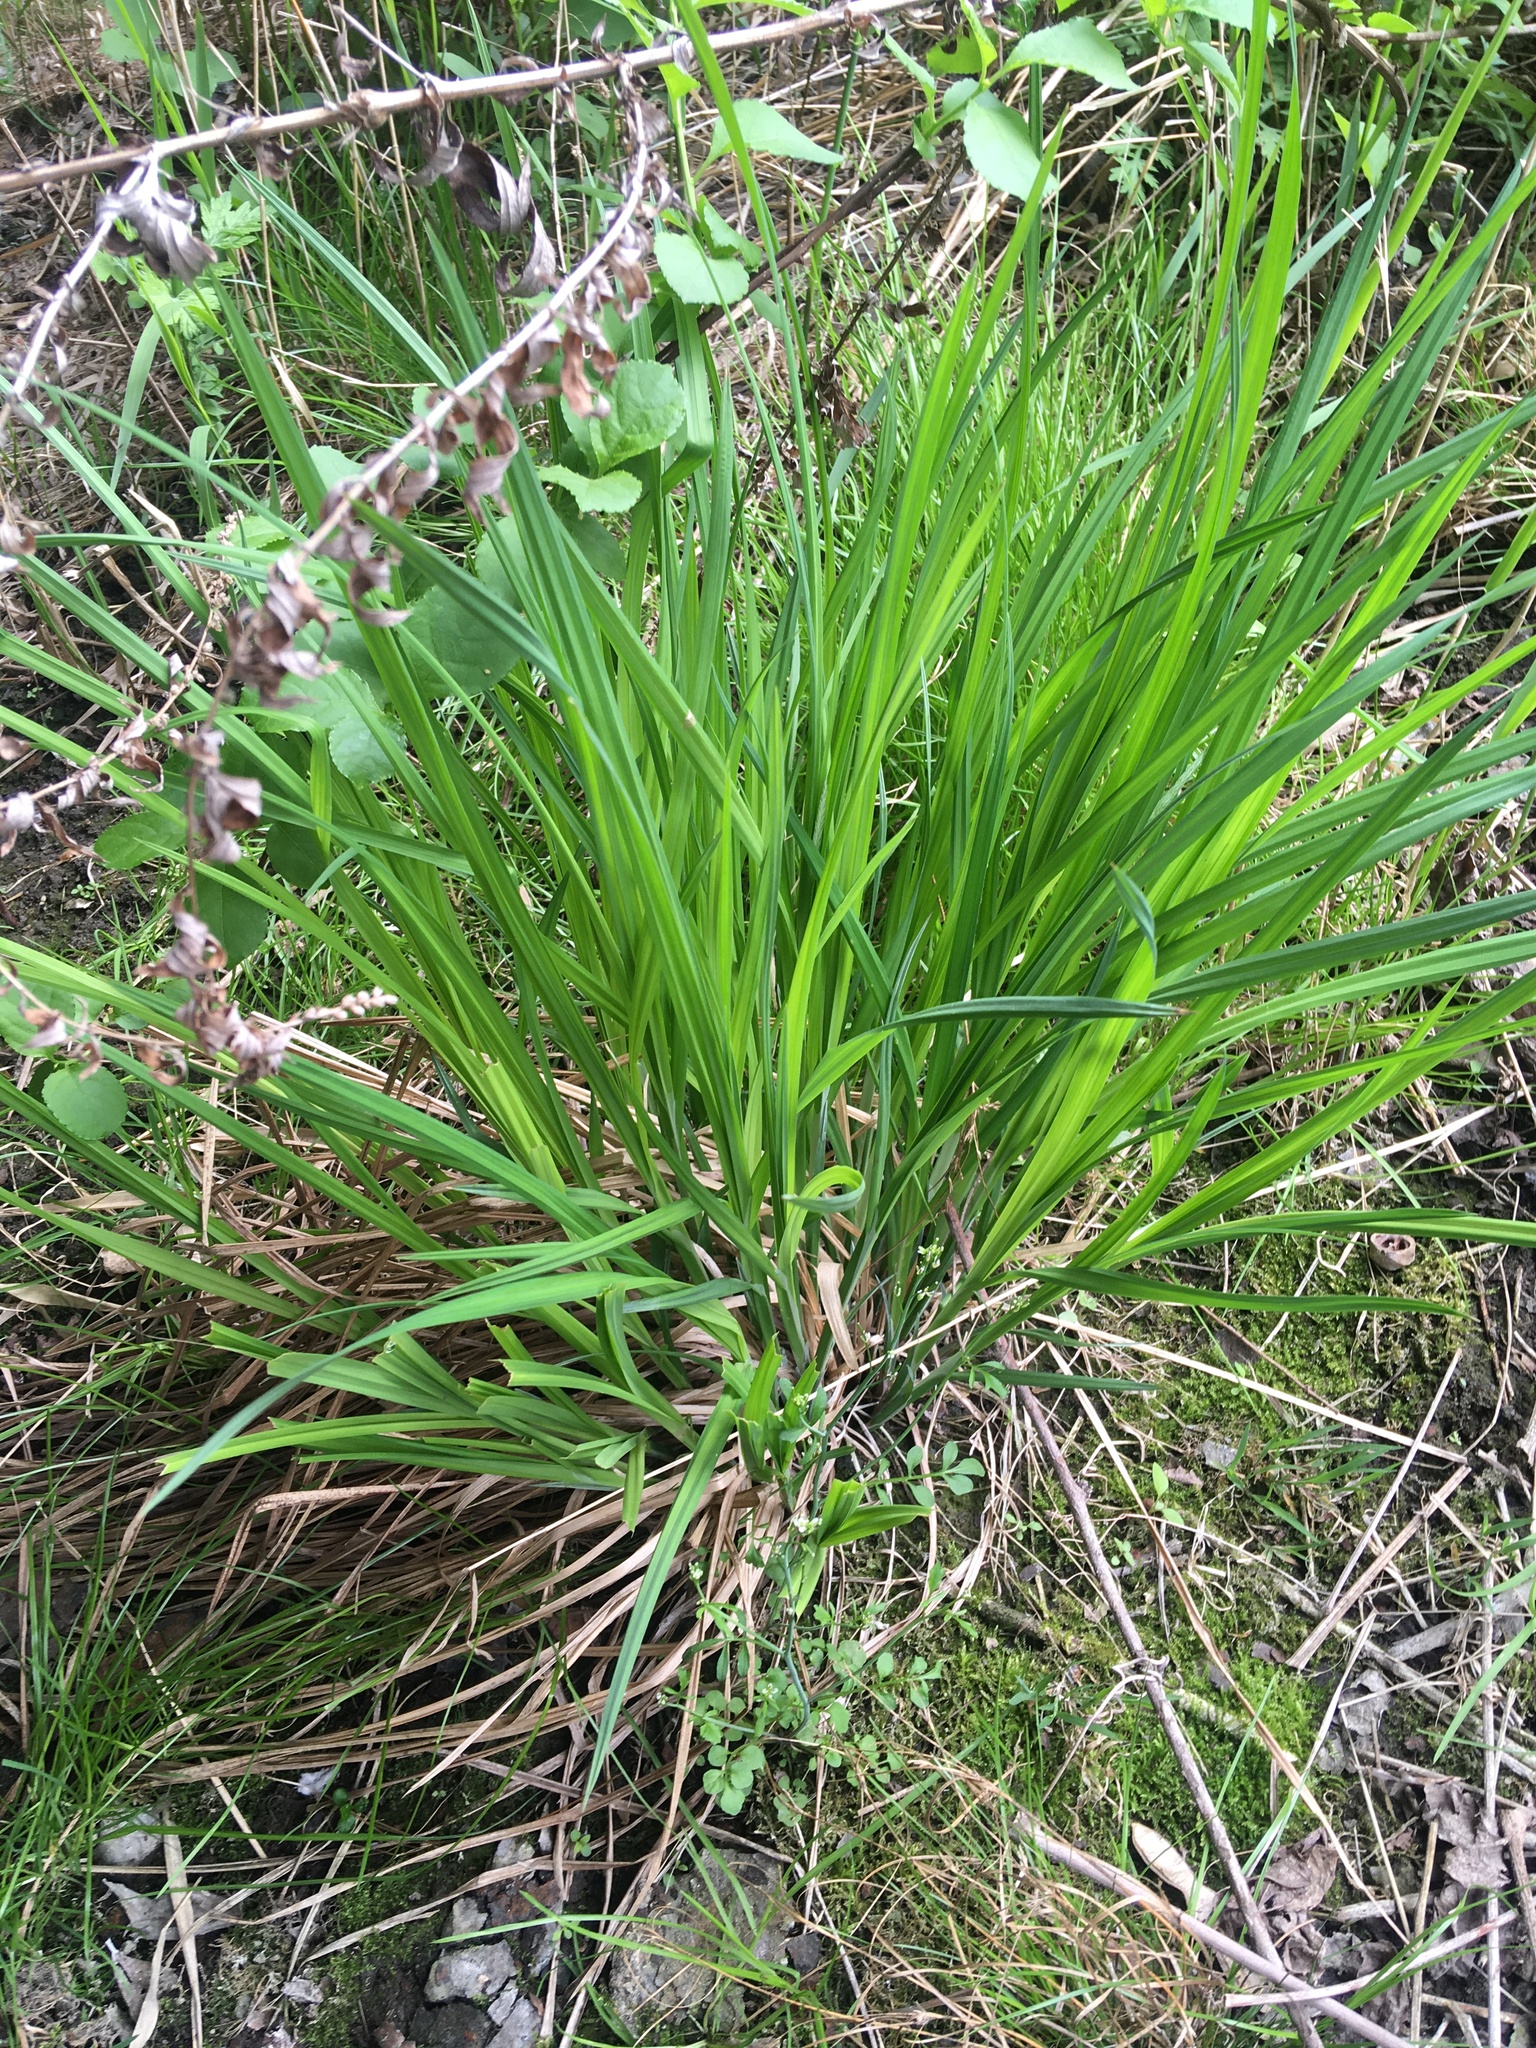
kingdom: Plantae
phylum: Tracheophyta
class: Liliopsida
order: Poales
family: Cyperaceae
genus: Carex
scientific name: Carex
